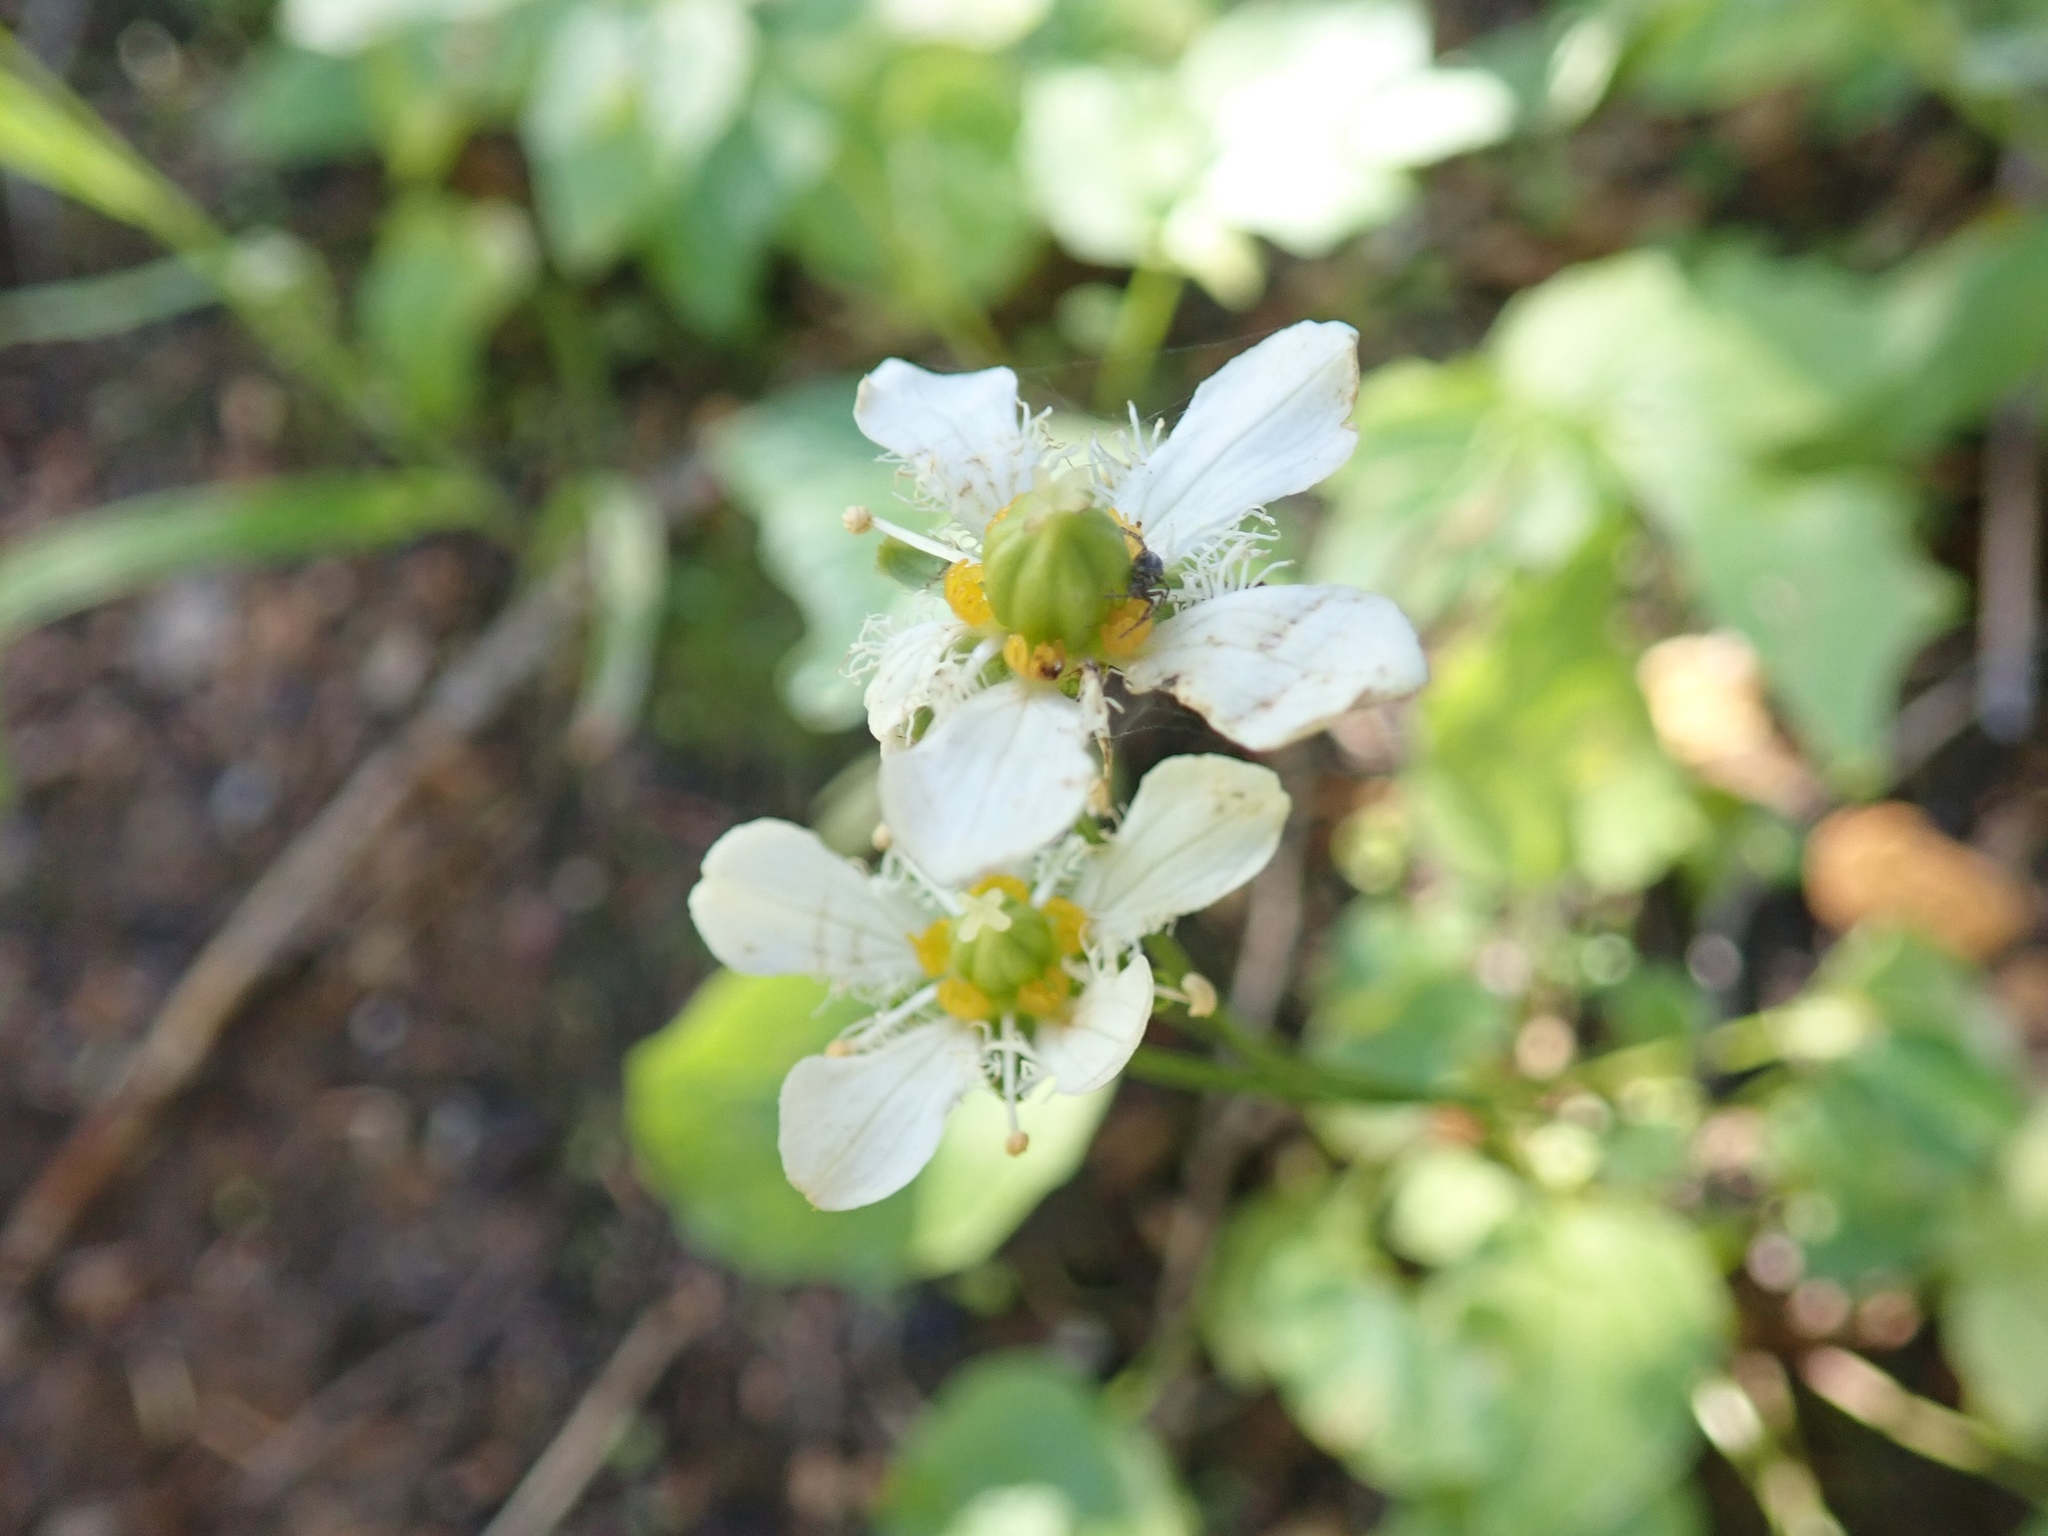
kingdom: Plantae
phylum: Tracheophyta
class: Magnoliopsida
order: Celastrales
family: Parnassiaceae
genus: Parnassia
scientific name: Parnassia fimbriata
